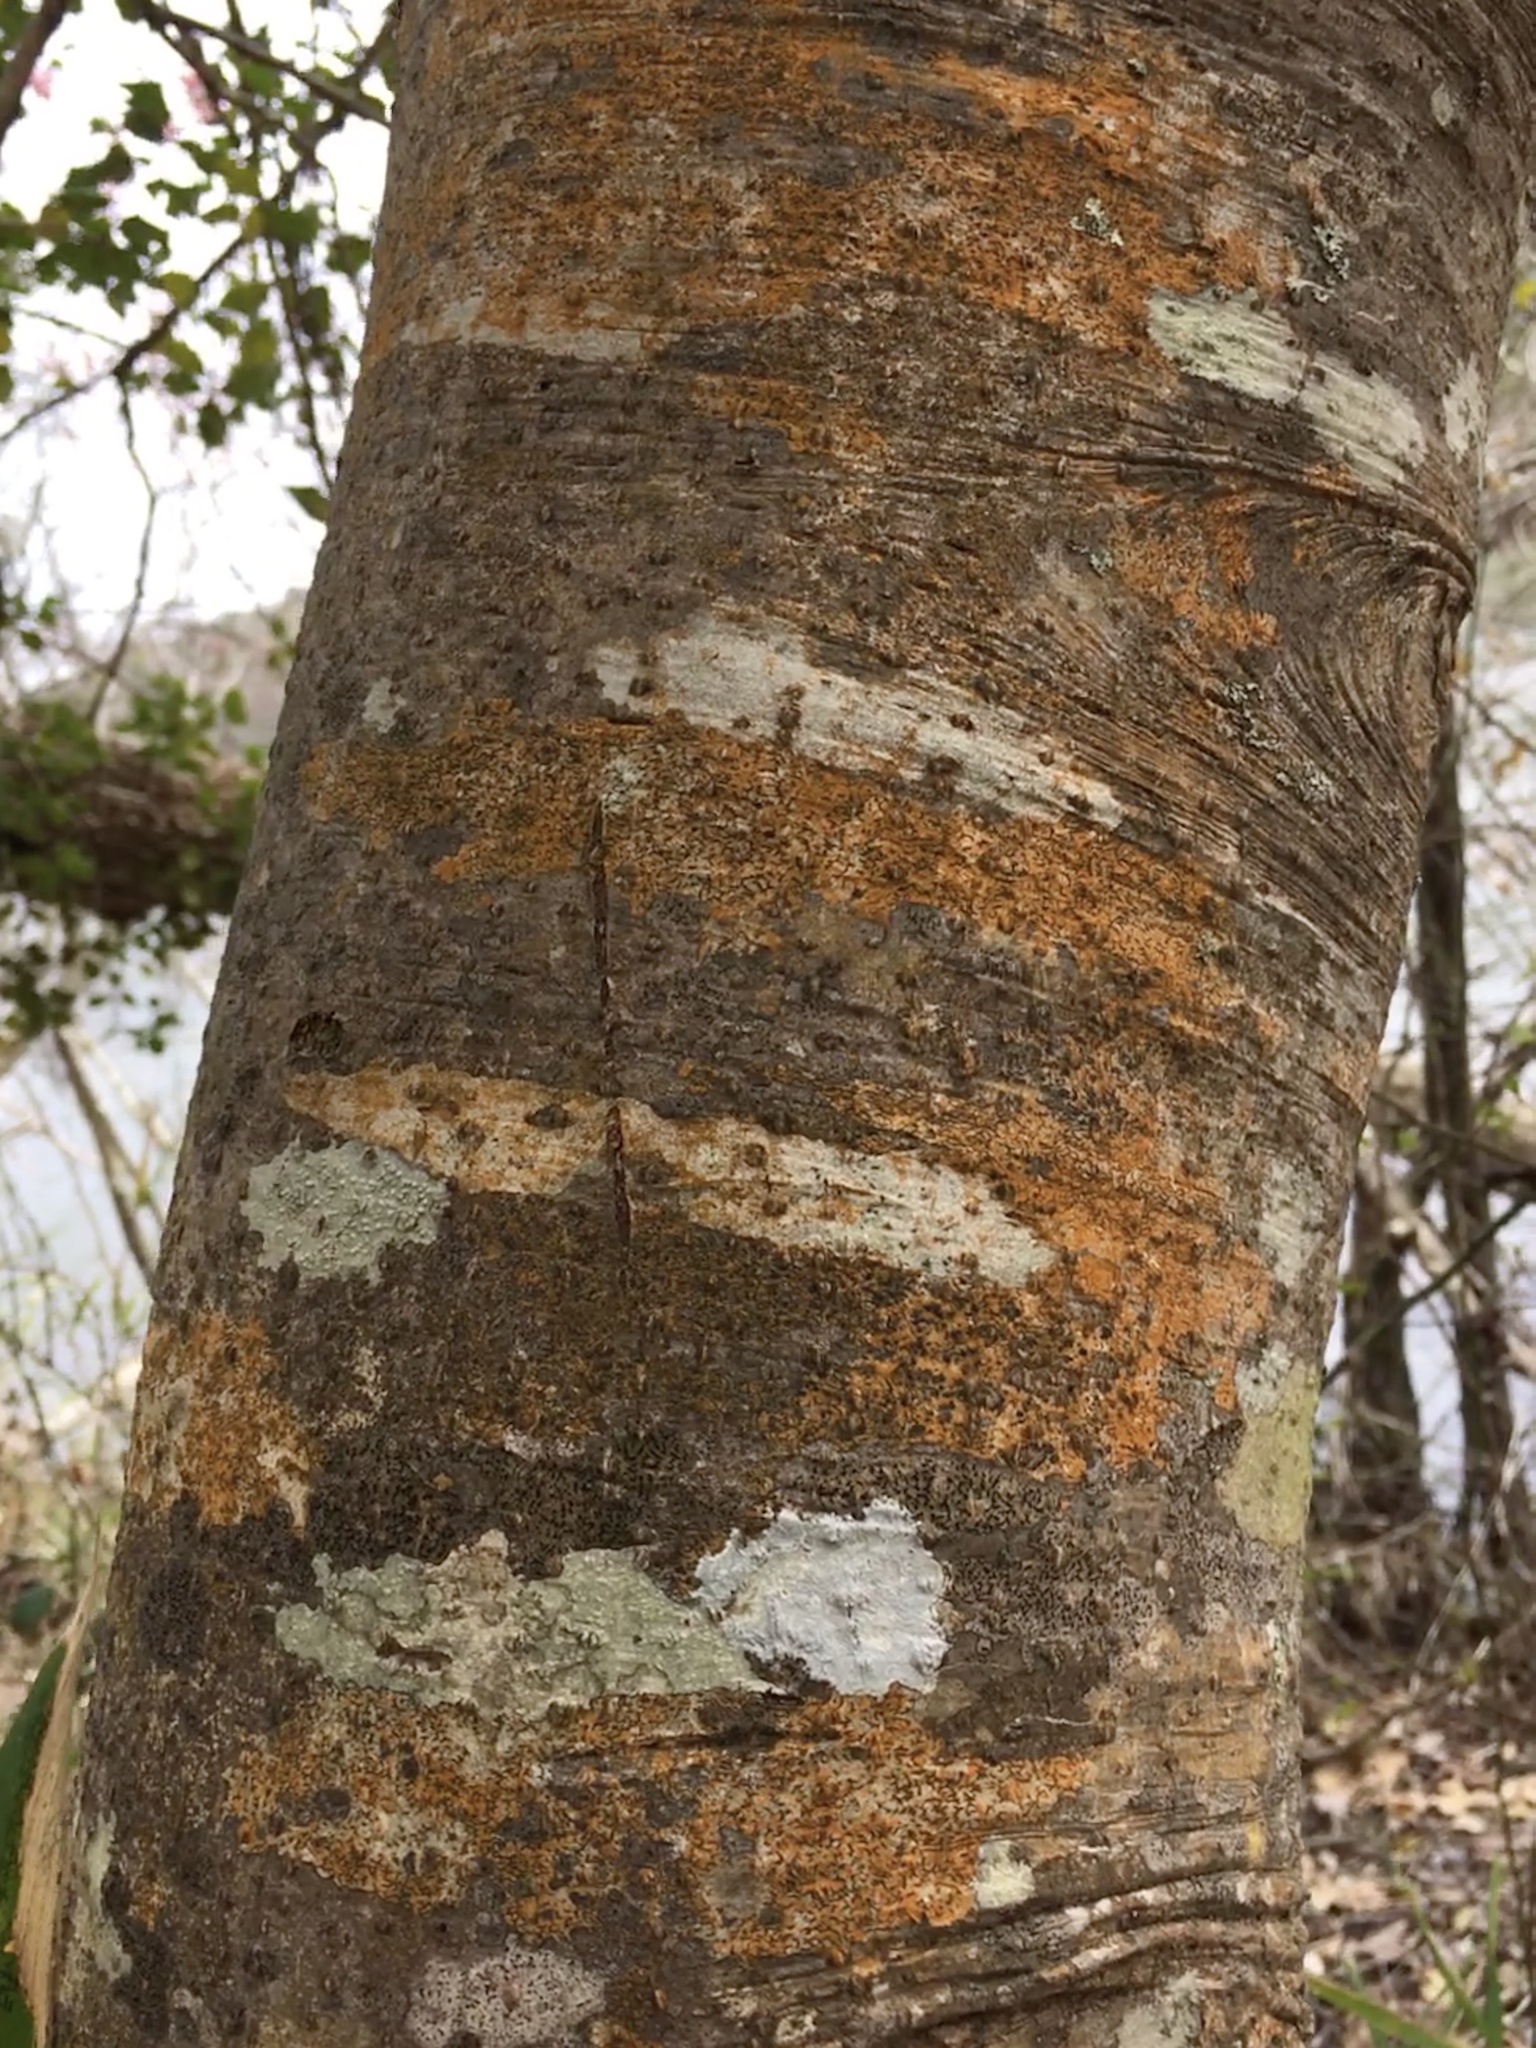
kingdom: Plantae
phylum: Tracheophyta
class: Magnoliopsida
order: Aquifoliales
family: Aquifoliaceae
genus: Ilex
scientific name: Ilex opaca
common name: American holly
